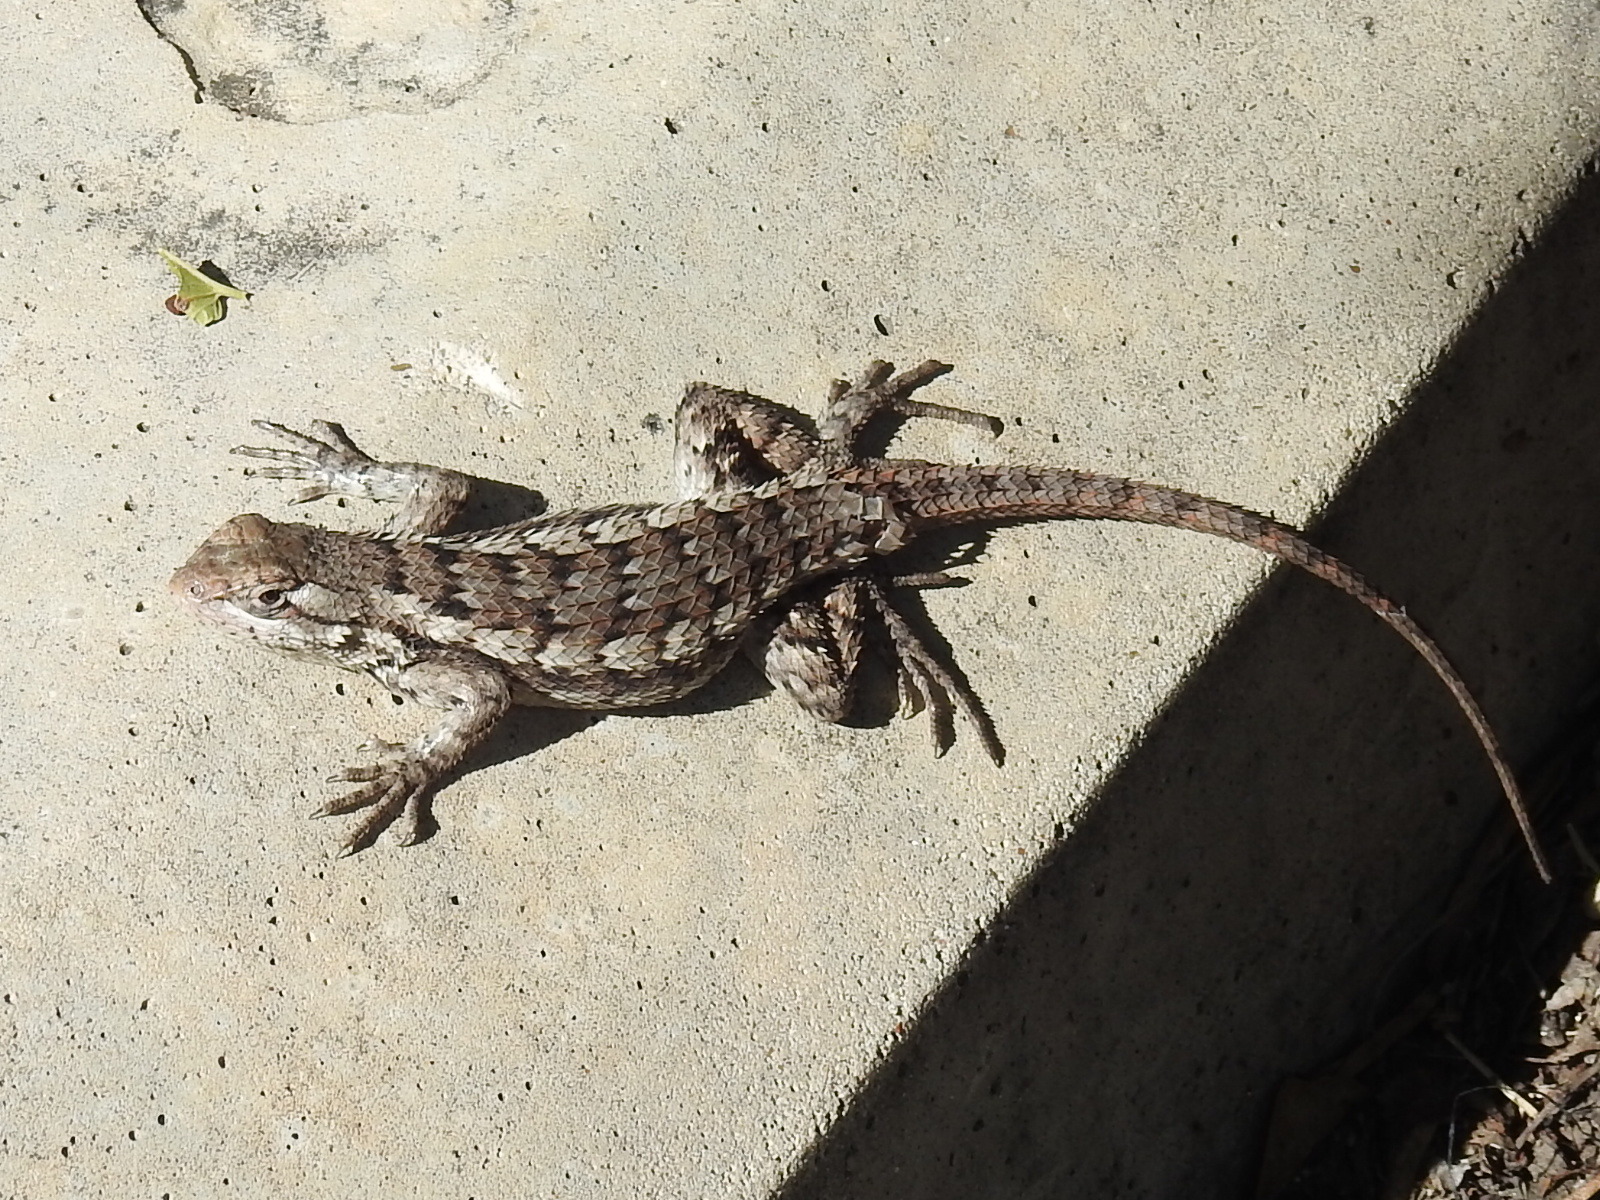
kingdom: Animalia
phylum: Chordata
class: Squamata
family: Phrynosomatidae
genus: Sceloporus
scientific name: Sceloporus olivaceus
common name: Texas spiny lizard
